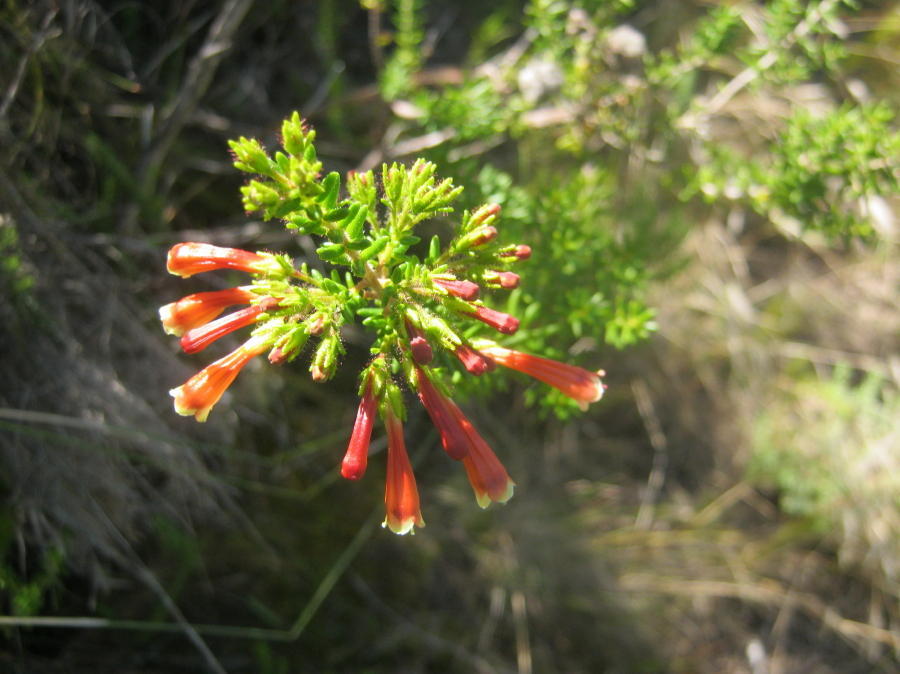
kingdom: Plantae
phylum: Tracheophyta
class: Magnoliopsida
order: Ericales
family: Ericaceae
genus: Erica
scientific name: Erica glandulosa
